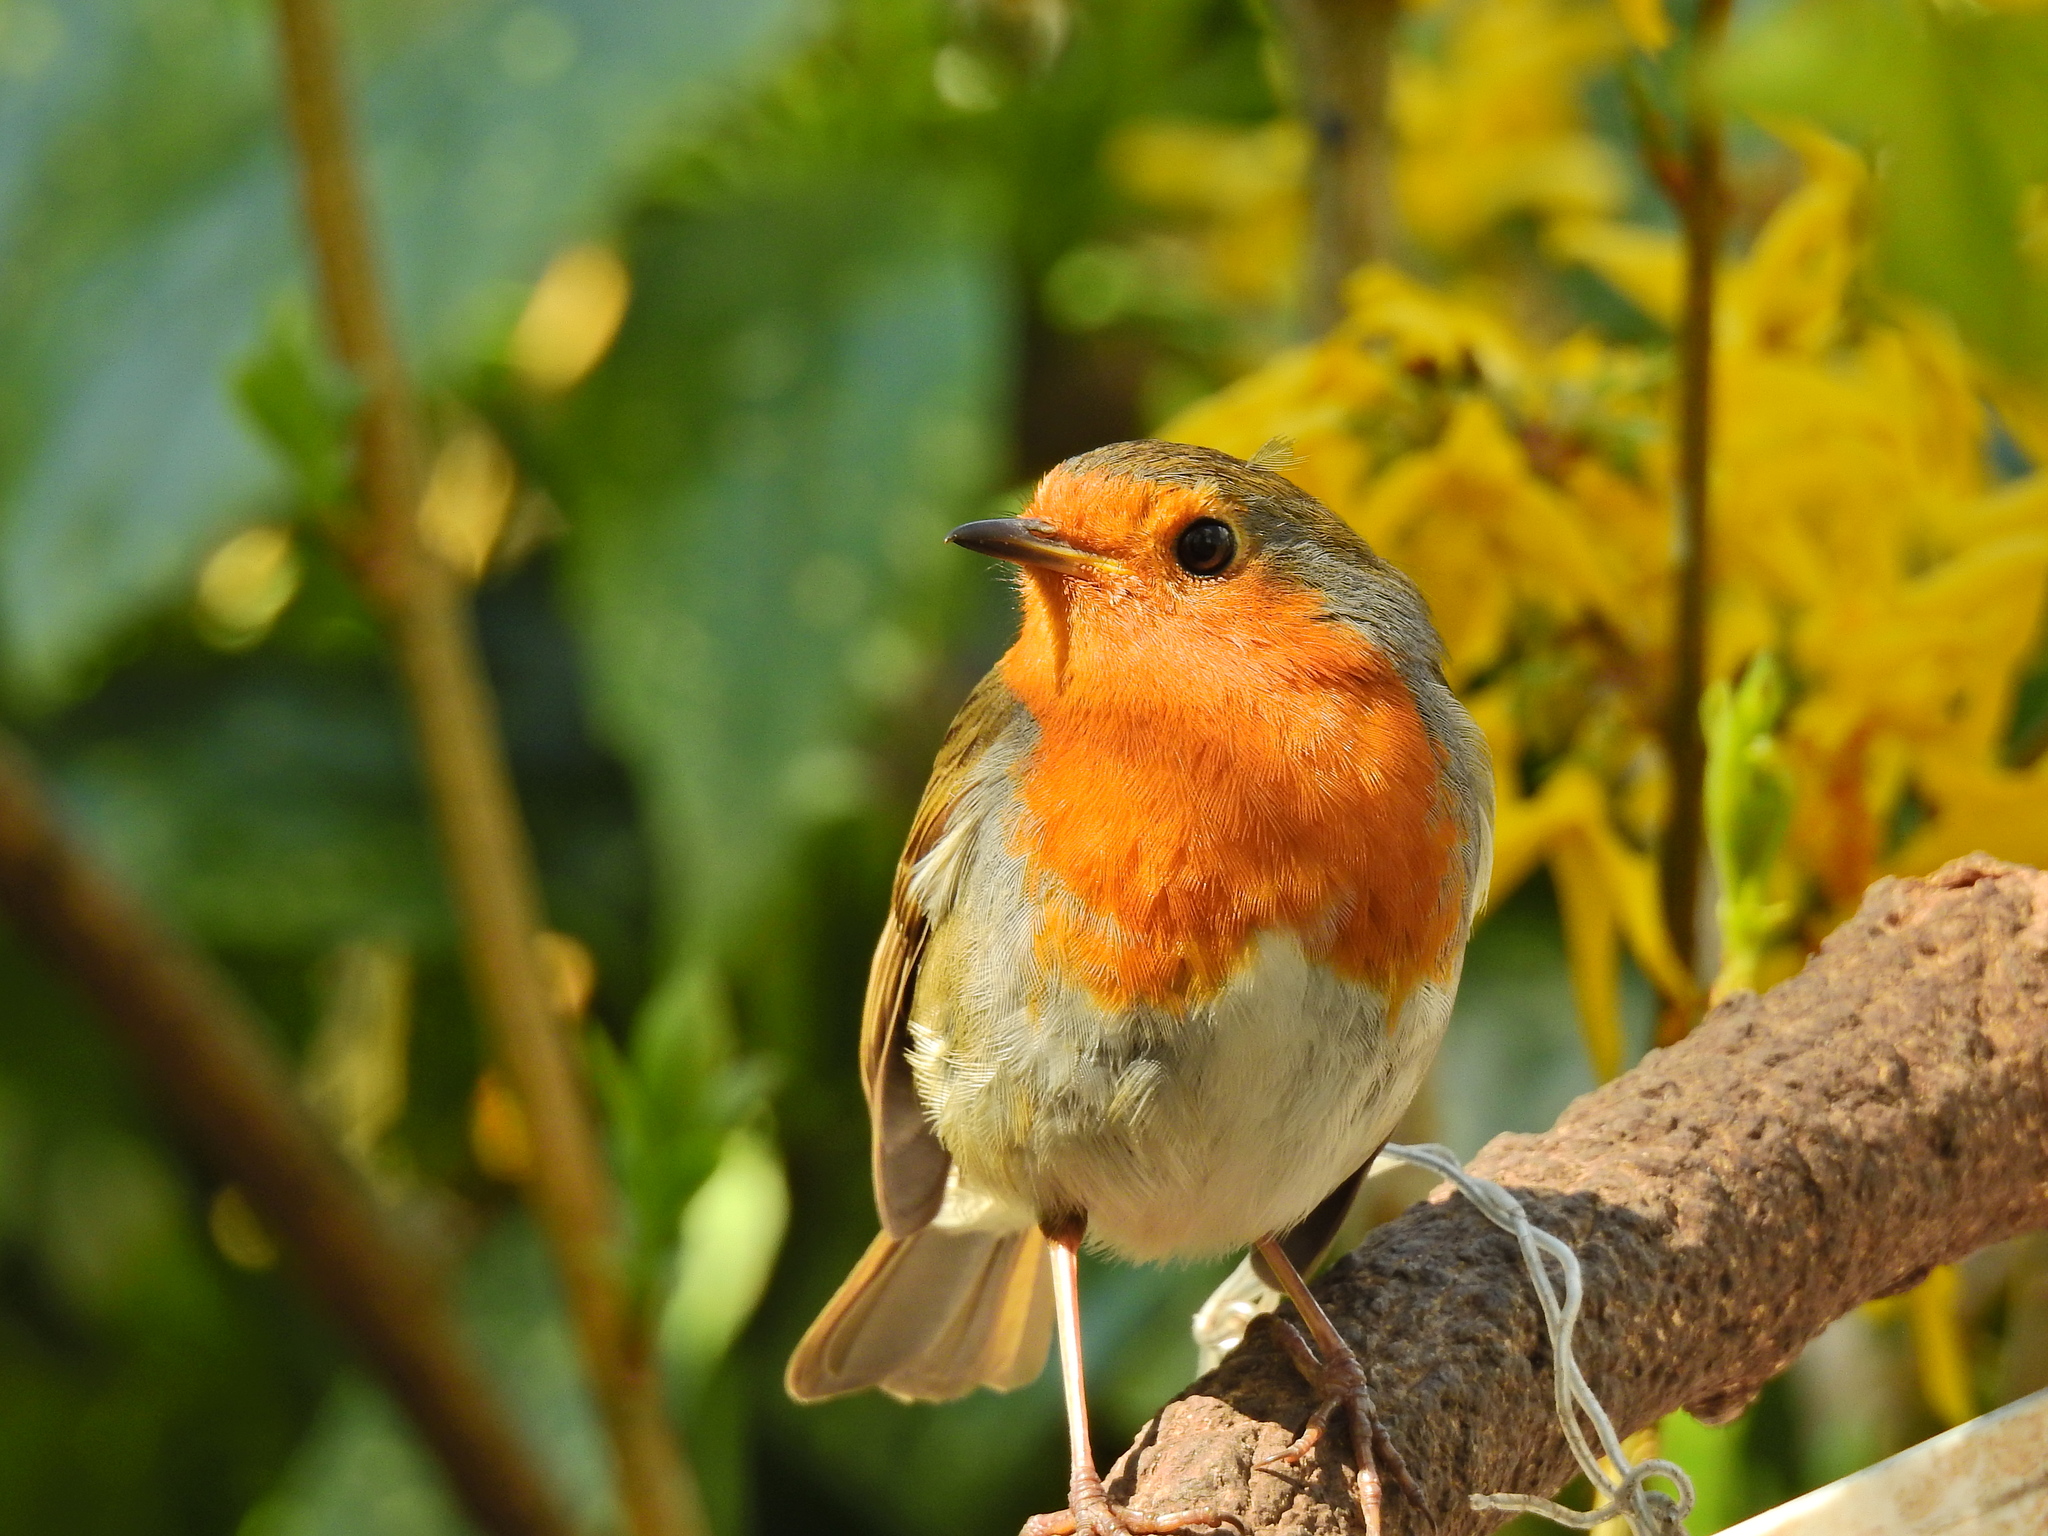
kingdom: Animalia
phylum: Chordata
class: Aves
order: Passeriformes
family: Muscicapidae
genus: Erithacus
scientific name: Erithacus rubecula
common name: European robin
